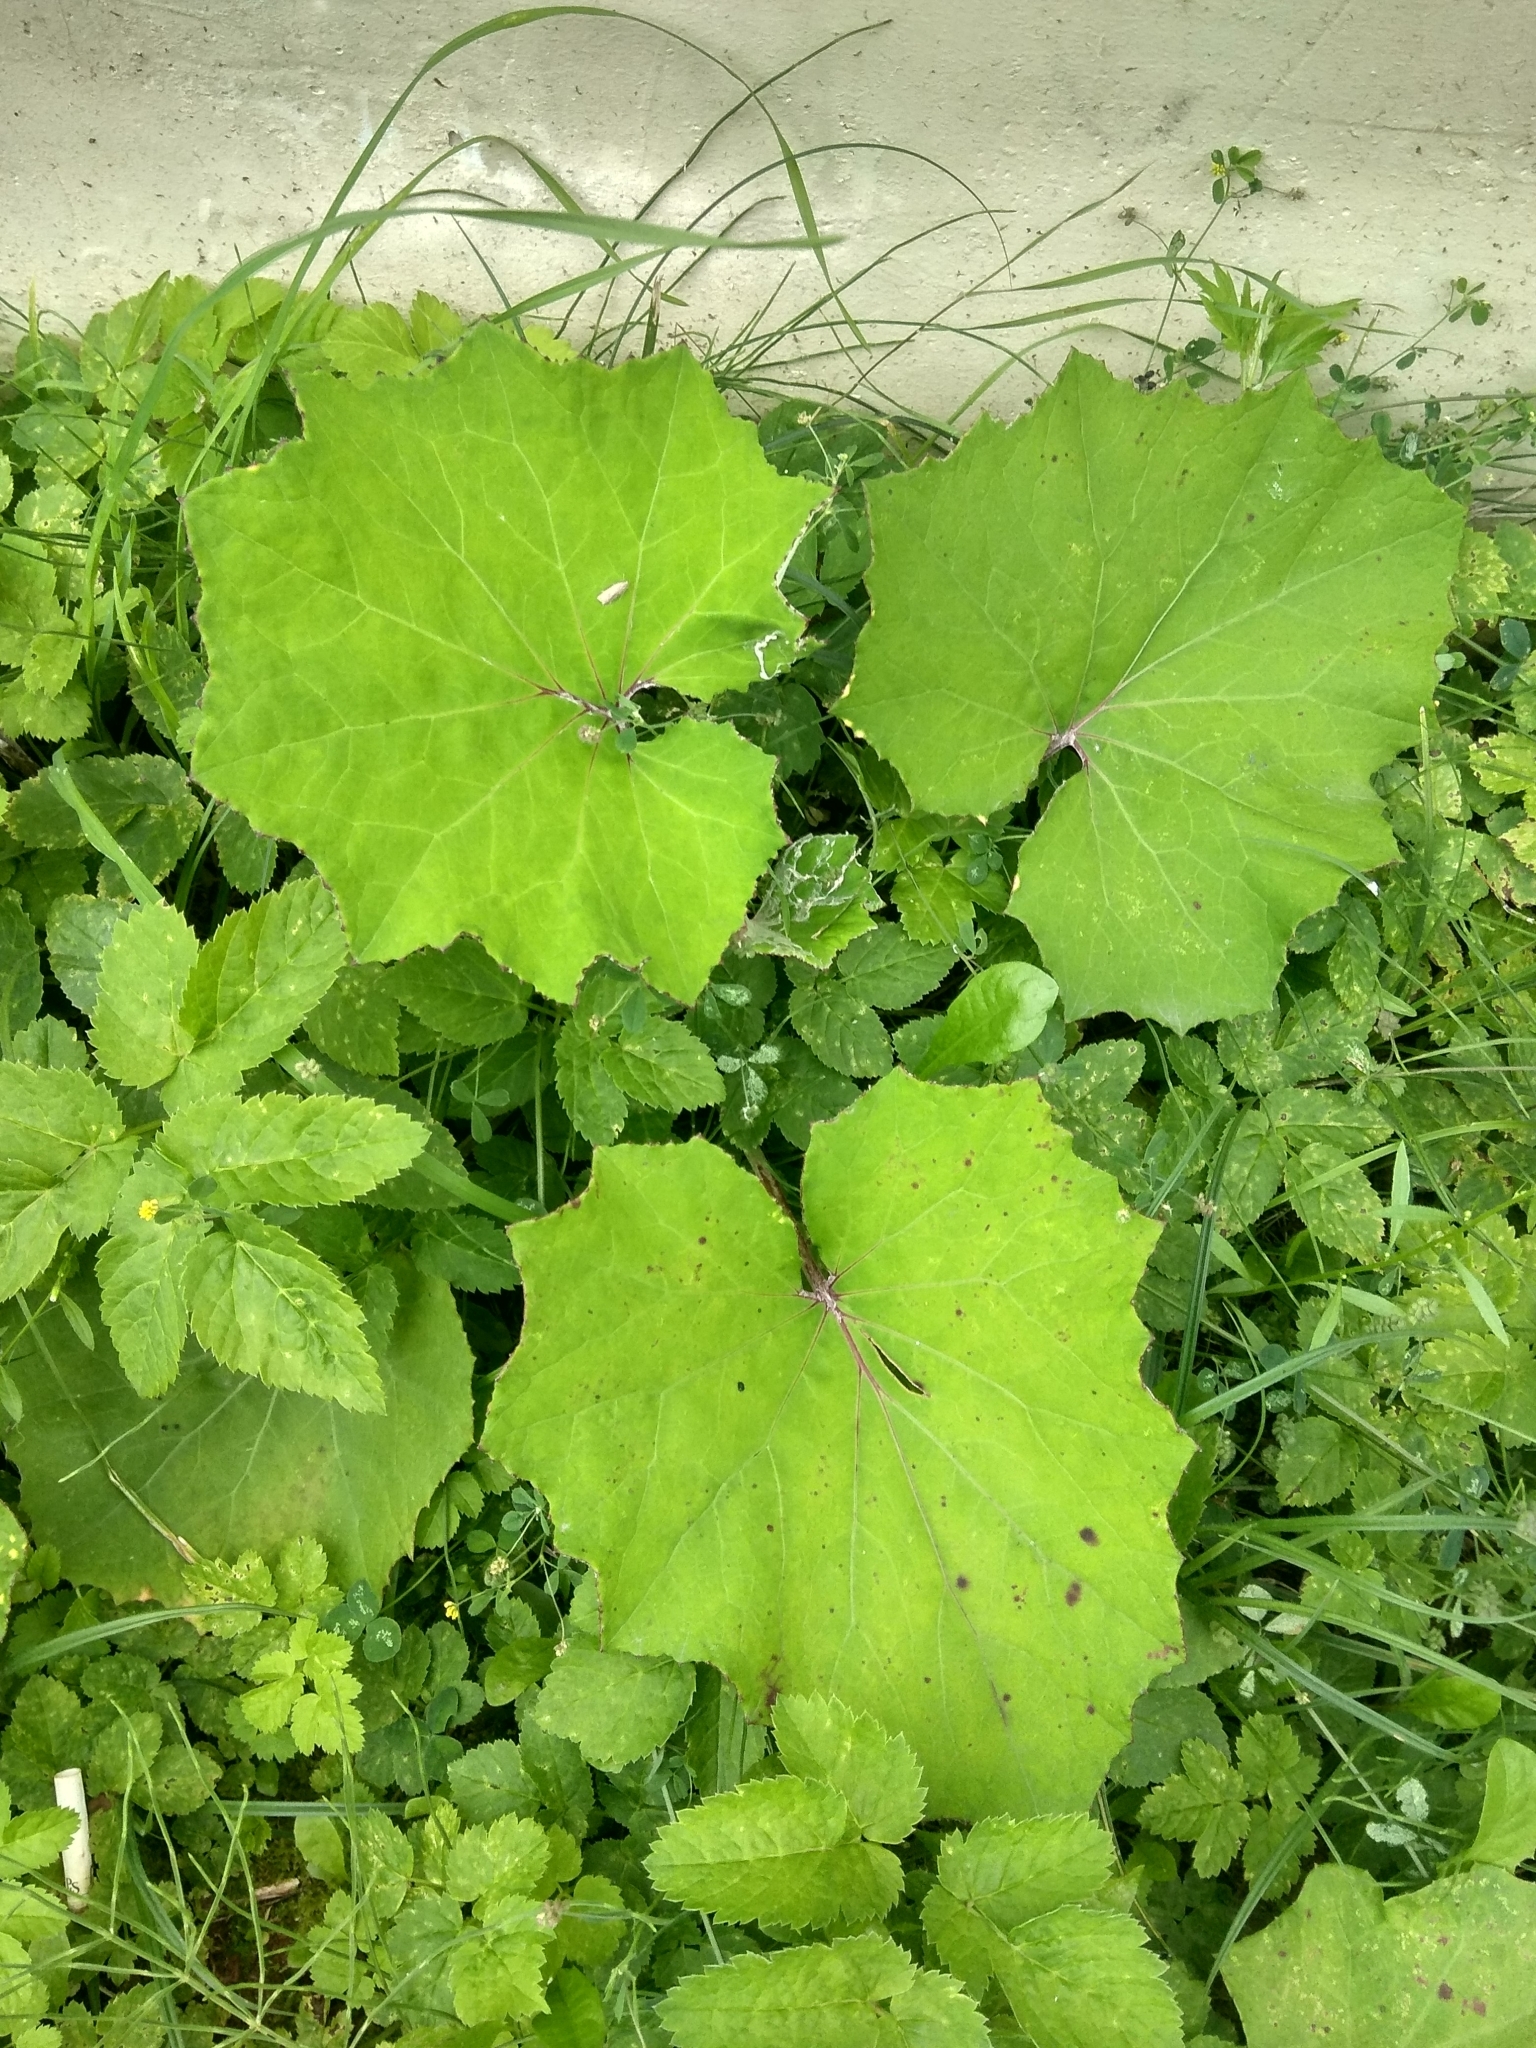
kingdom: Plantae
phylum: Tracheophyta
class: Magnoliopsida
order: Asterales
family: Asteraceae
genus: Tussilago
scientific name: Tussilago farfara
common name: Coltsfoot
